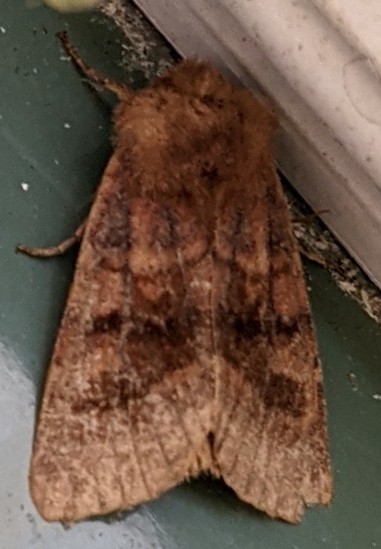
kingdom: Animalia
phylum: Arthropoda
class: Insecta
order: Lepidoptera
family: Noctuidae
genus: Nephelodes
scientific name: Nephelodes minians
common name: Bronzed cutworm
